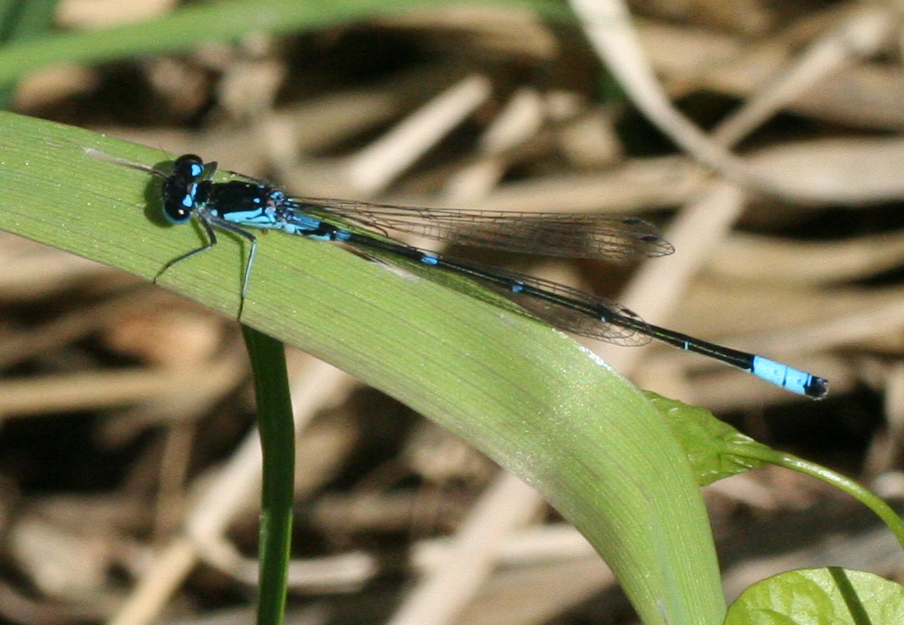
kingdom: Animalia
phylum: Arthropoda
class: Insecta
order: Odonata
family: Coenagrionidae
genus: Coenagrion
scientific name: Coenagrion pulchellum
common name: Variable bluet
